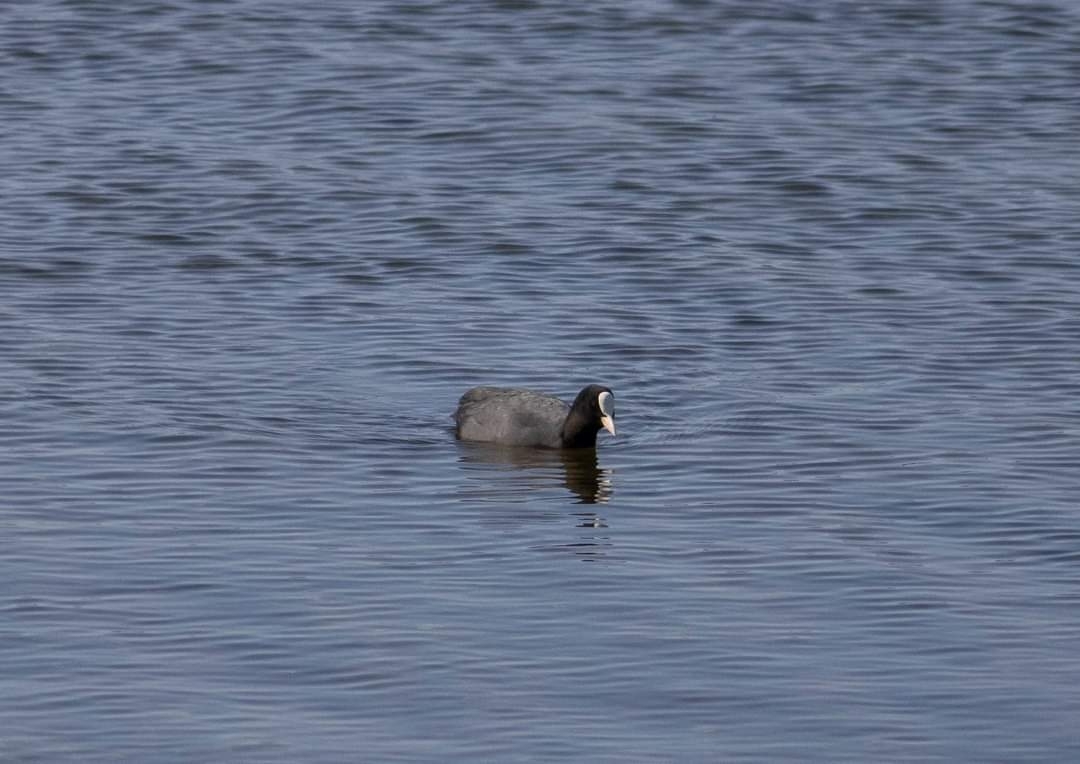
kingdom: Animalia
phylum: Chordata
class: Aves
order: Gruiformes
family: Rallidae
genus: Fulica
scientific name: Fulica atra
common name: Eurasian coot
